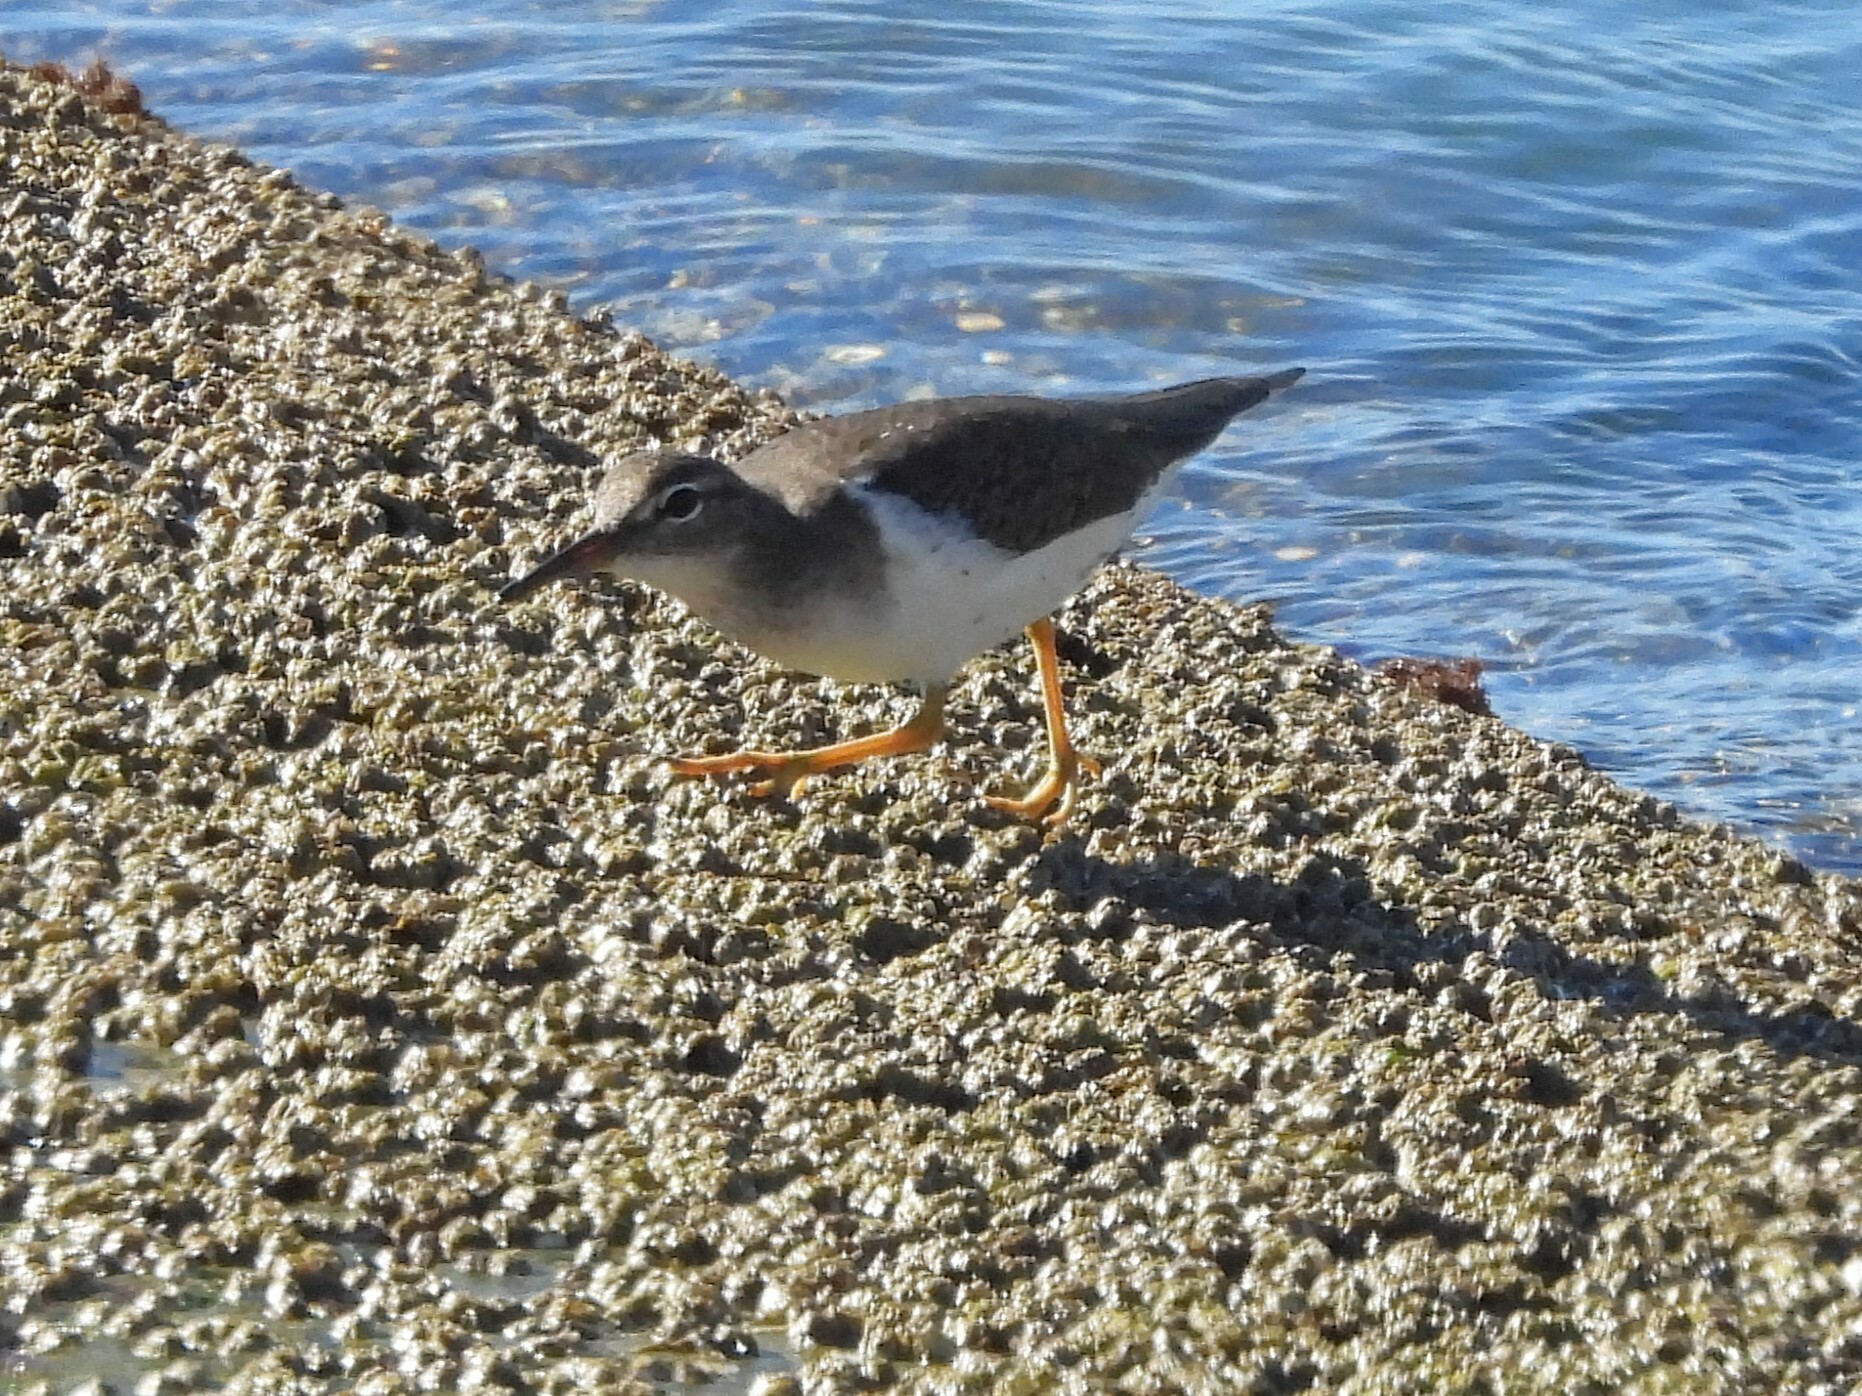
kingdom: Animalia
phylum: Chordata
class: Aves
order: Charadriiformes
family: Scolopacidae
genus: Actitis
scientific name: Actitis macularius
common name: Spotted sandpiper
